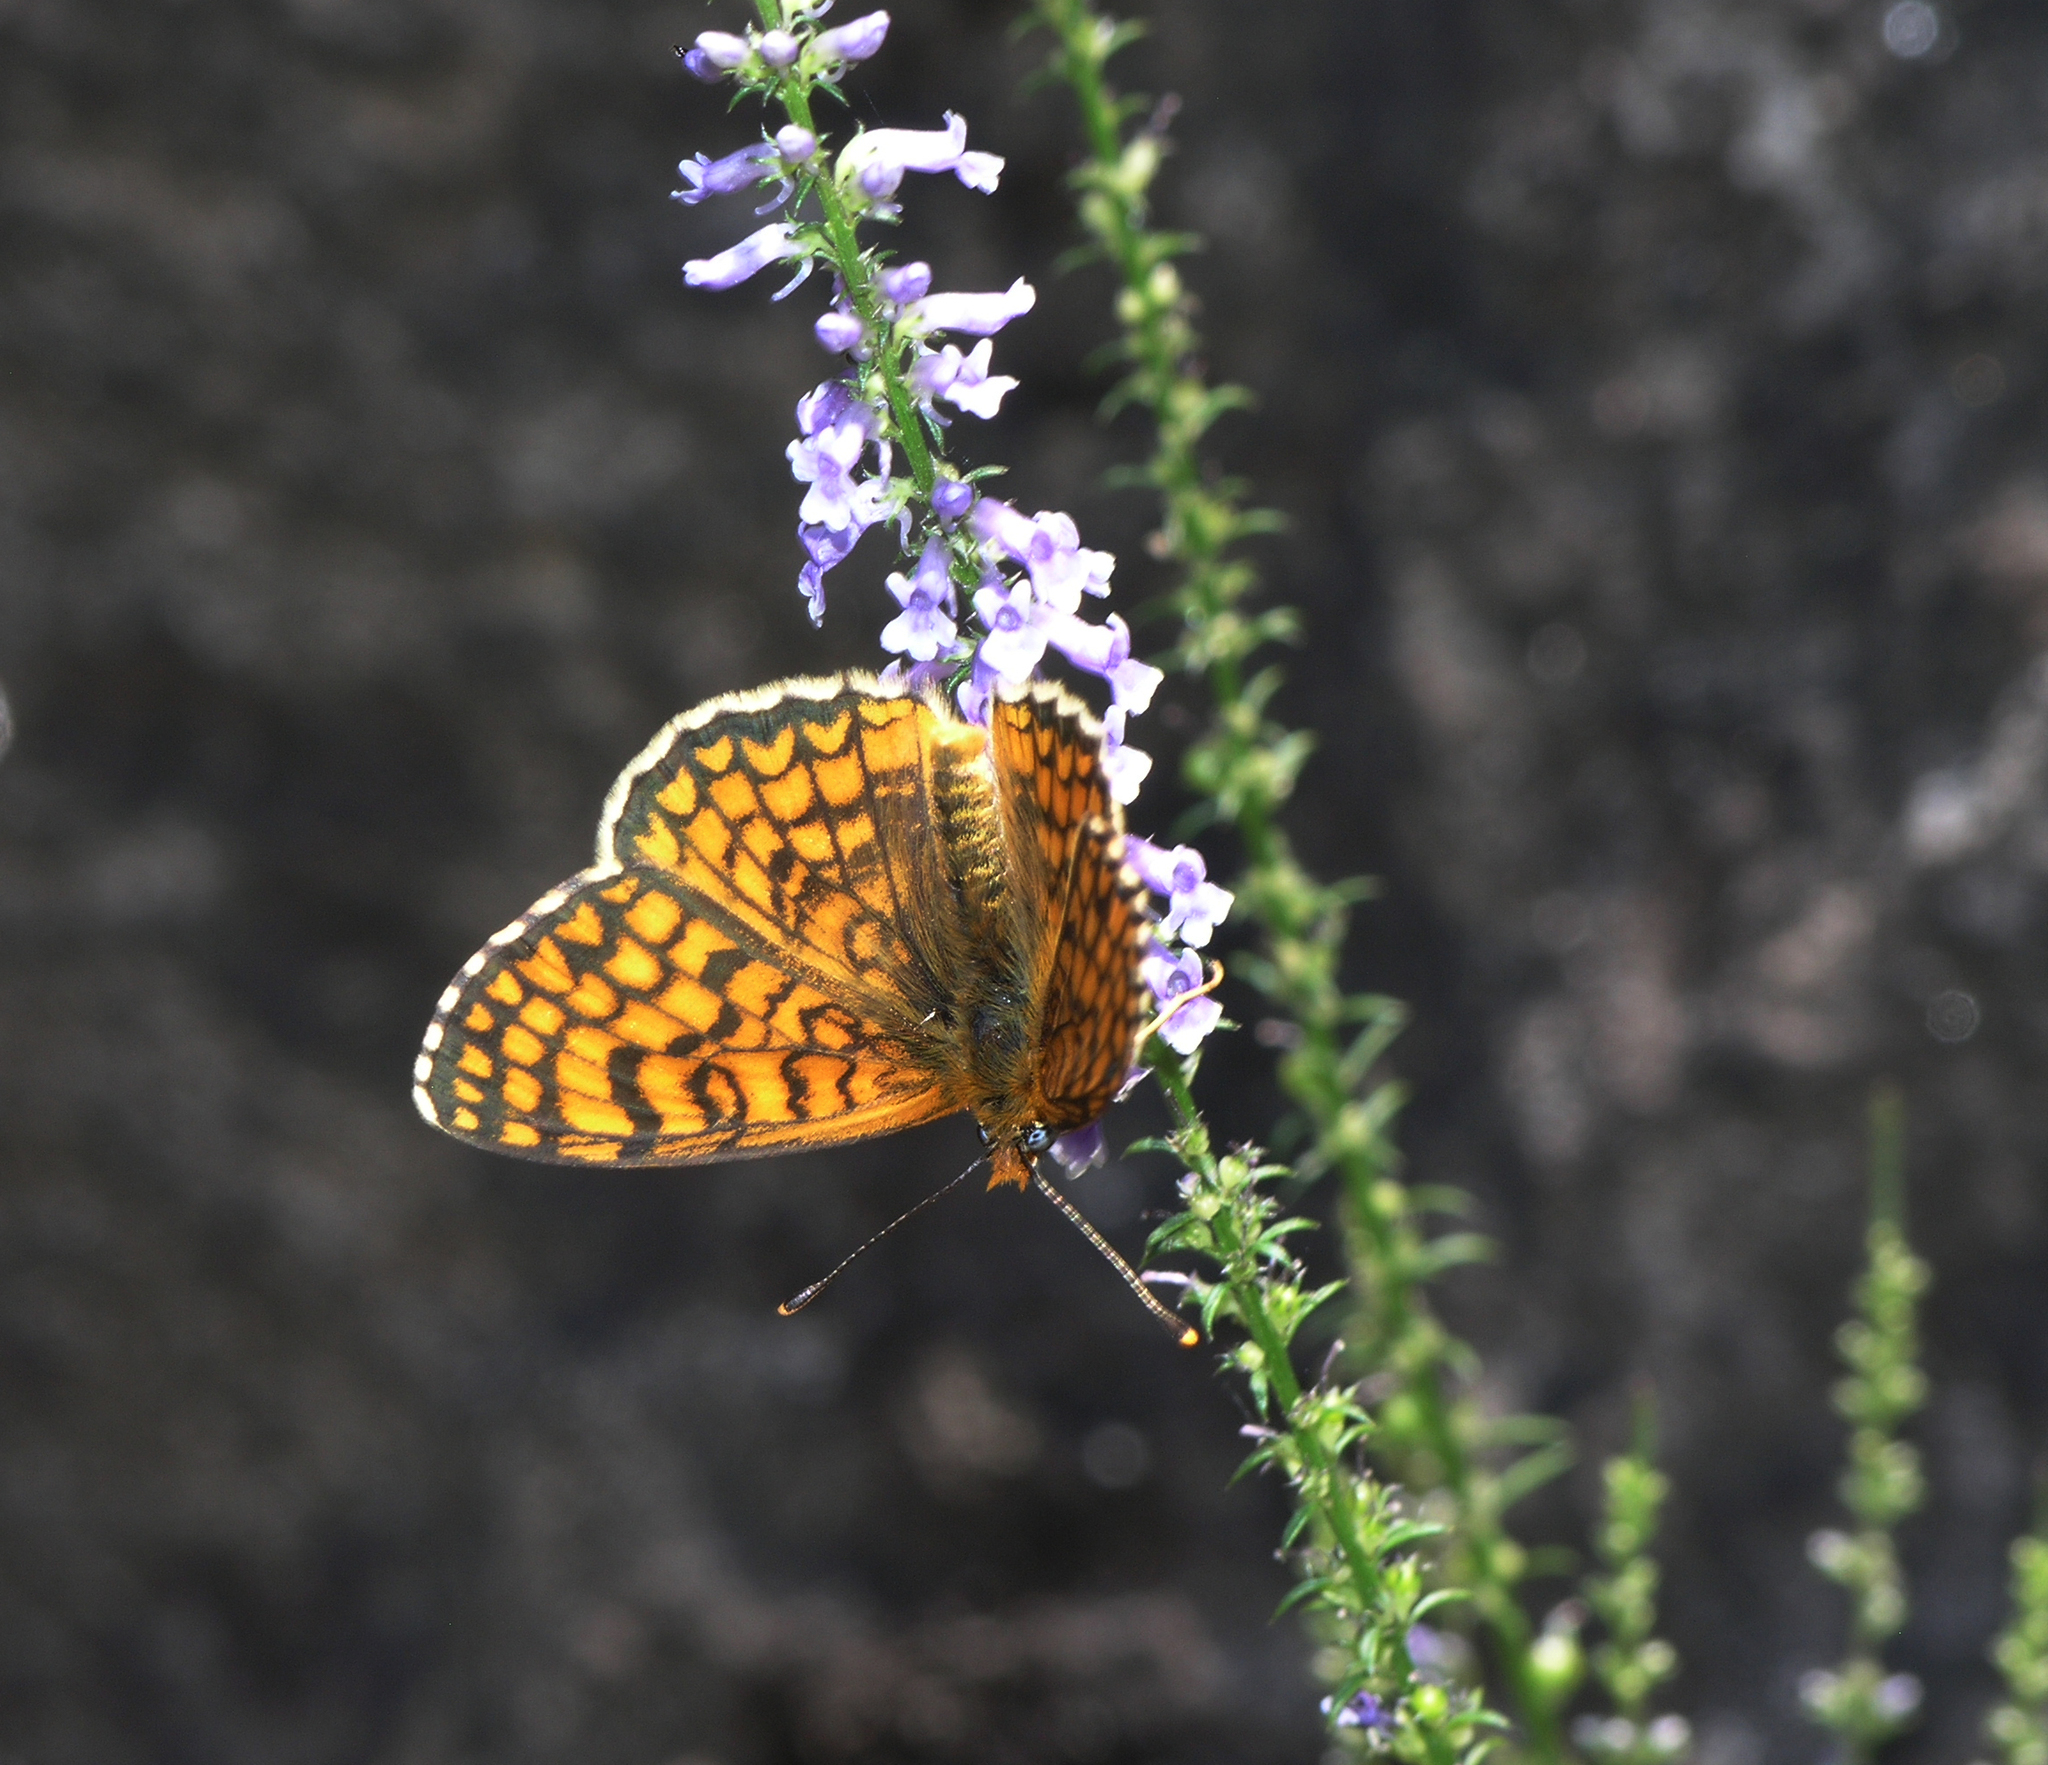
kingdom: Plantae
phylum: Tracheophyta
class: Magnoliopsida
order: Lamiales
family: Plantaginaceae
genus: Anarrhinum
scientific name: Anarrhinum bellidifolium
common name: Daisy-leaved toadflax
